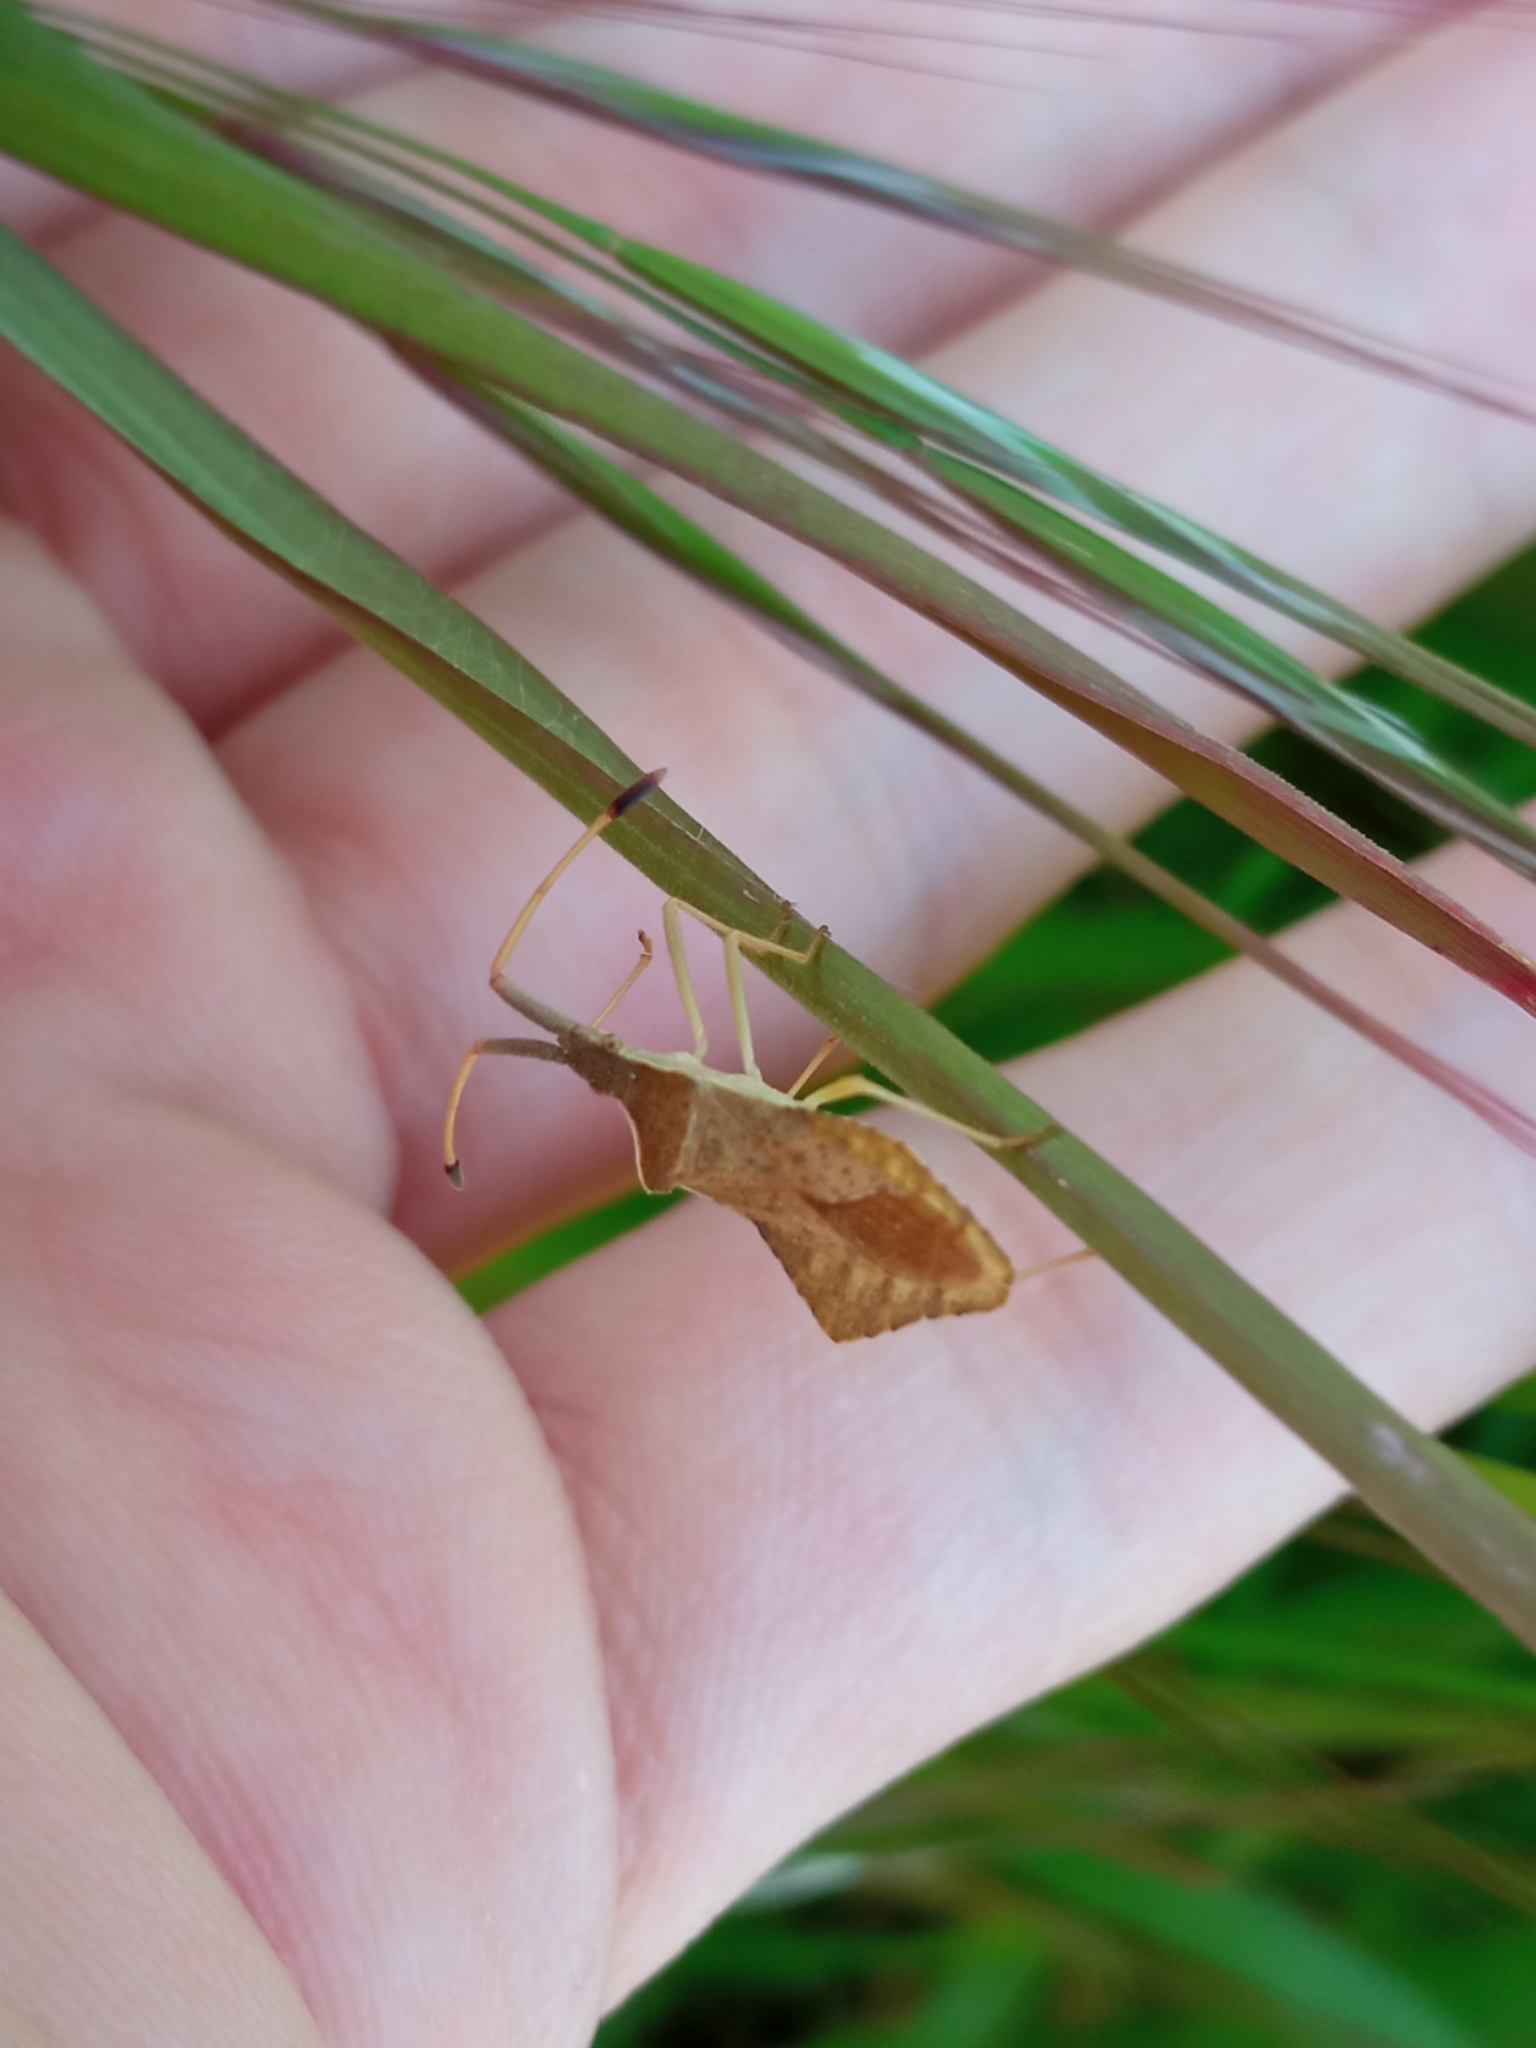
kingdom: Animalia
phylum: Arthropoda
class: Insecta
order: Hemiptera
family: Coreidae
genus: Syromastus
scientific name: Syromastus rhombeus
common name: Rhombic leatherbug
